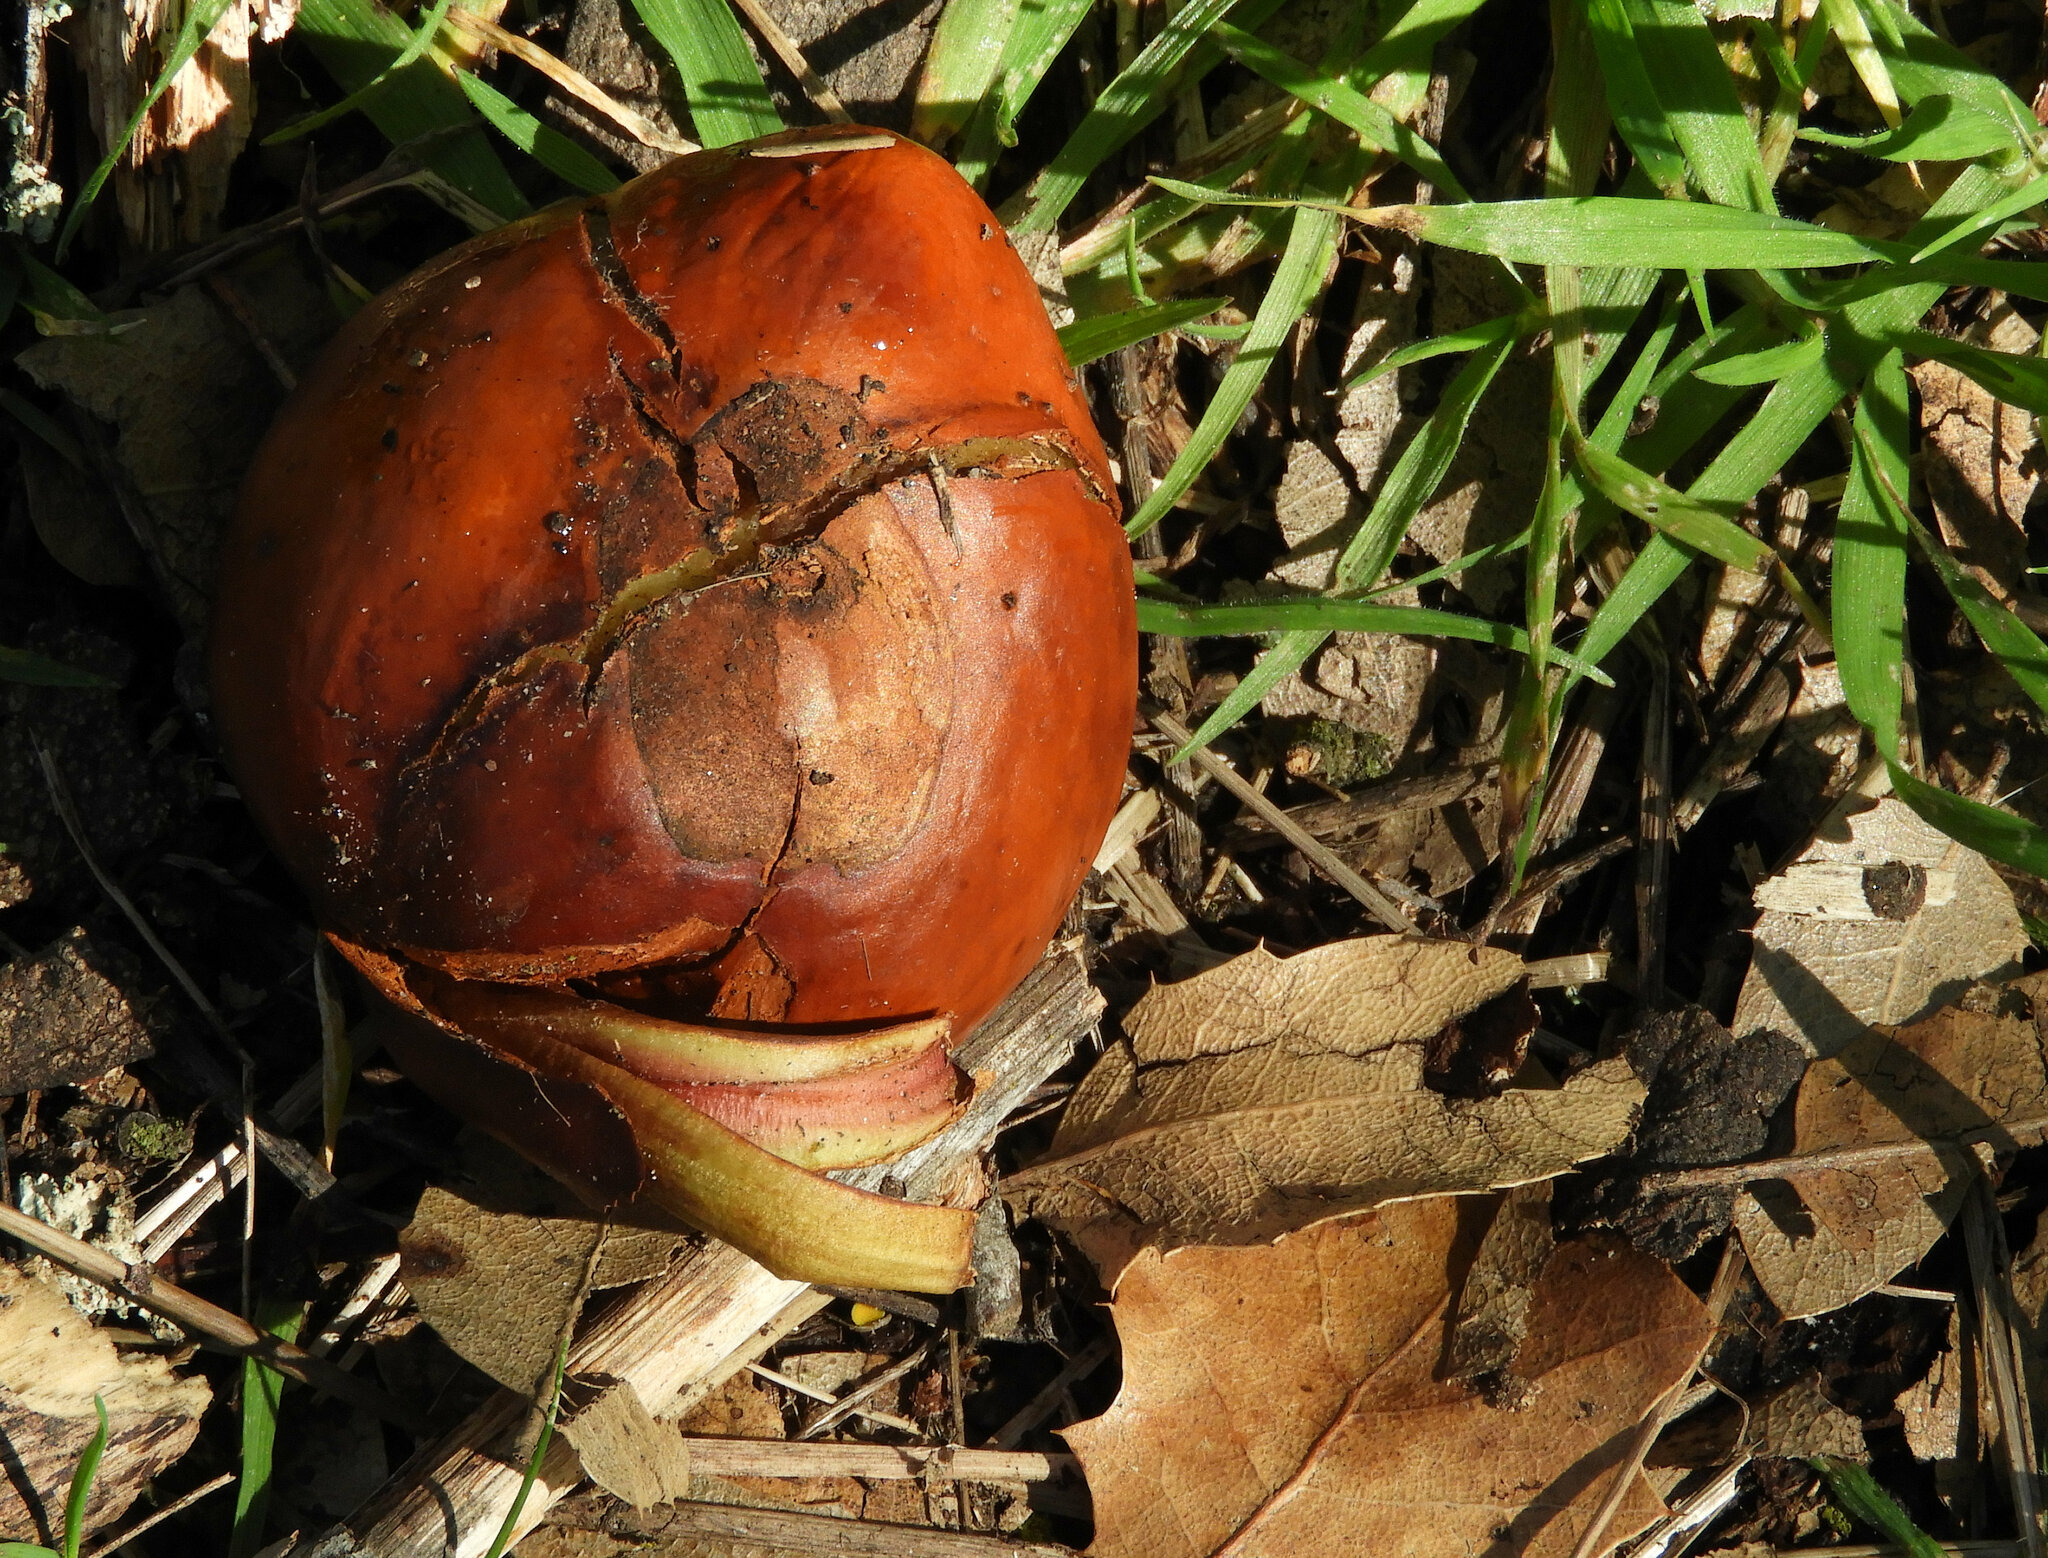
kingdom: Plantae
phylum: Tracheophyta
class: Magnoliopsida
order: Sapindales
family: Sapindaceae
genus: Aesculus
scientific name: Aesculus californica
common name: California buckeye
